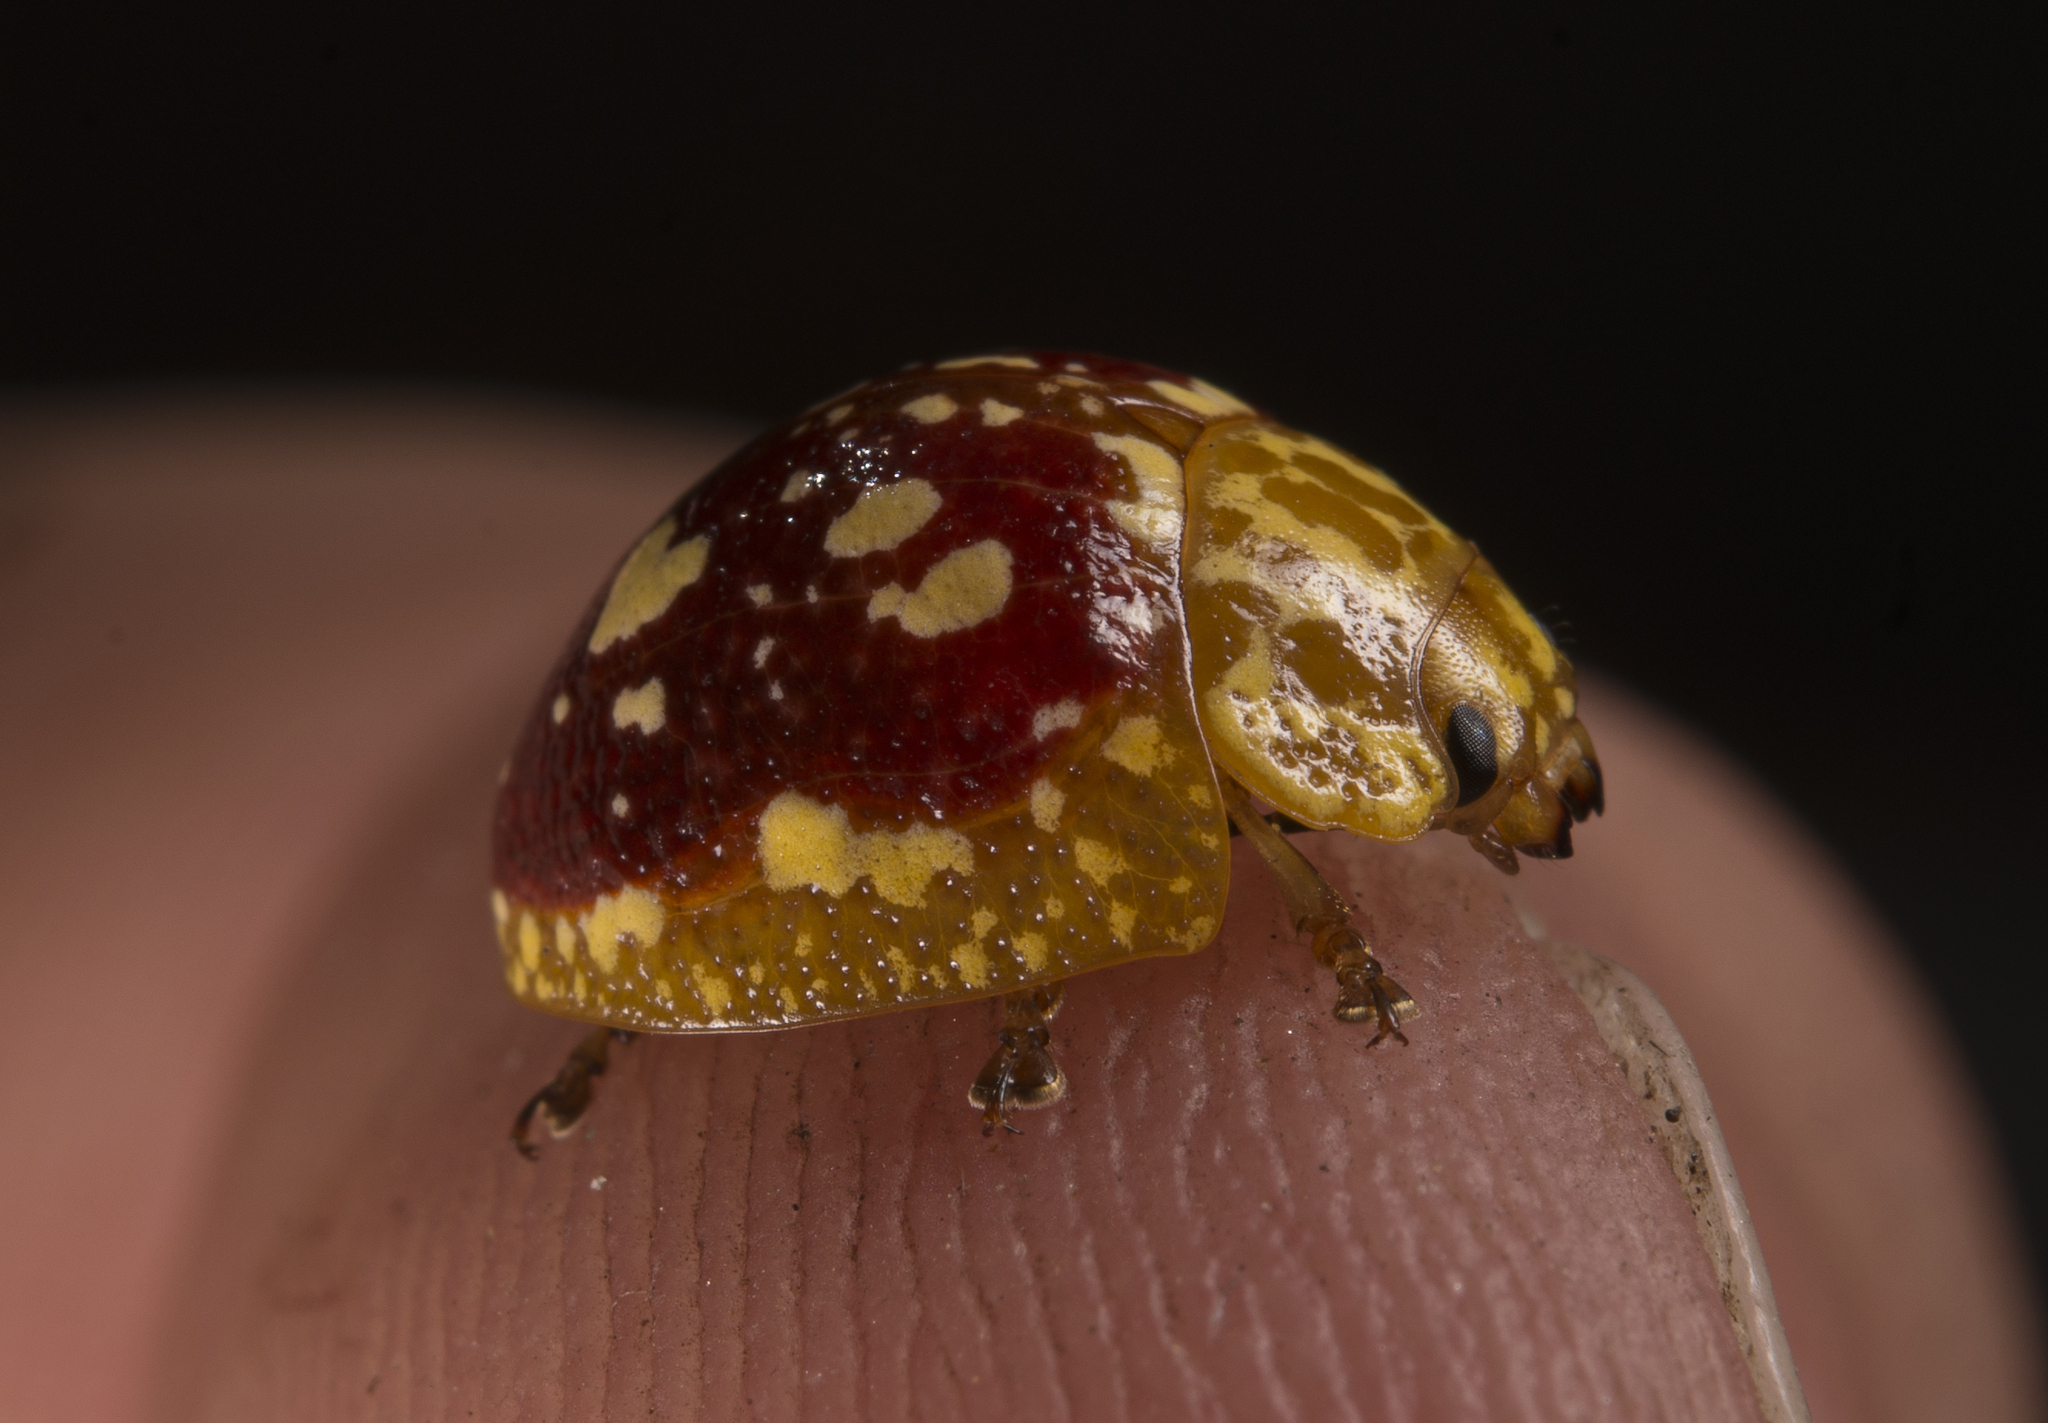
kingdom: Animalia
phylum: Arthropoda
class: Insecta
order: Coleoptera
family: Chrysomelidae
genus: Paropsis
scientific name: Paropsis maculata
